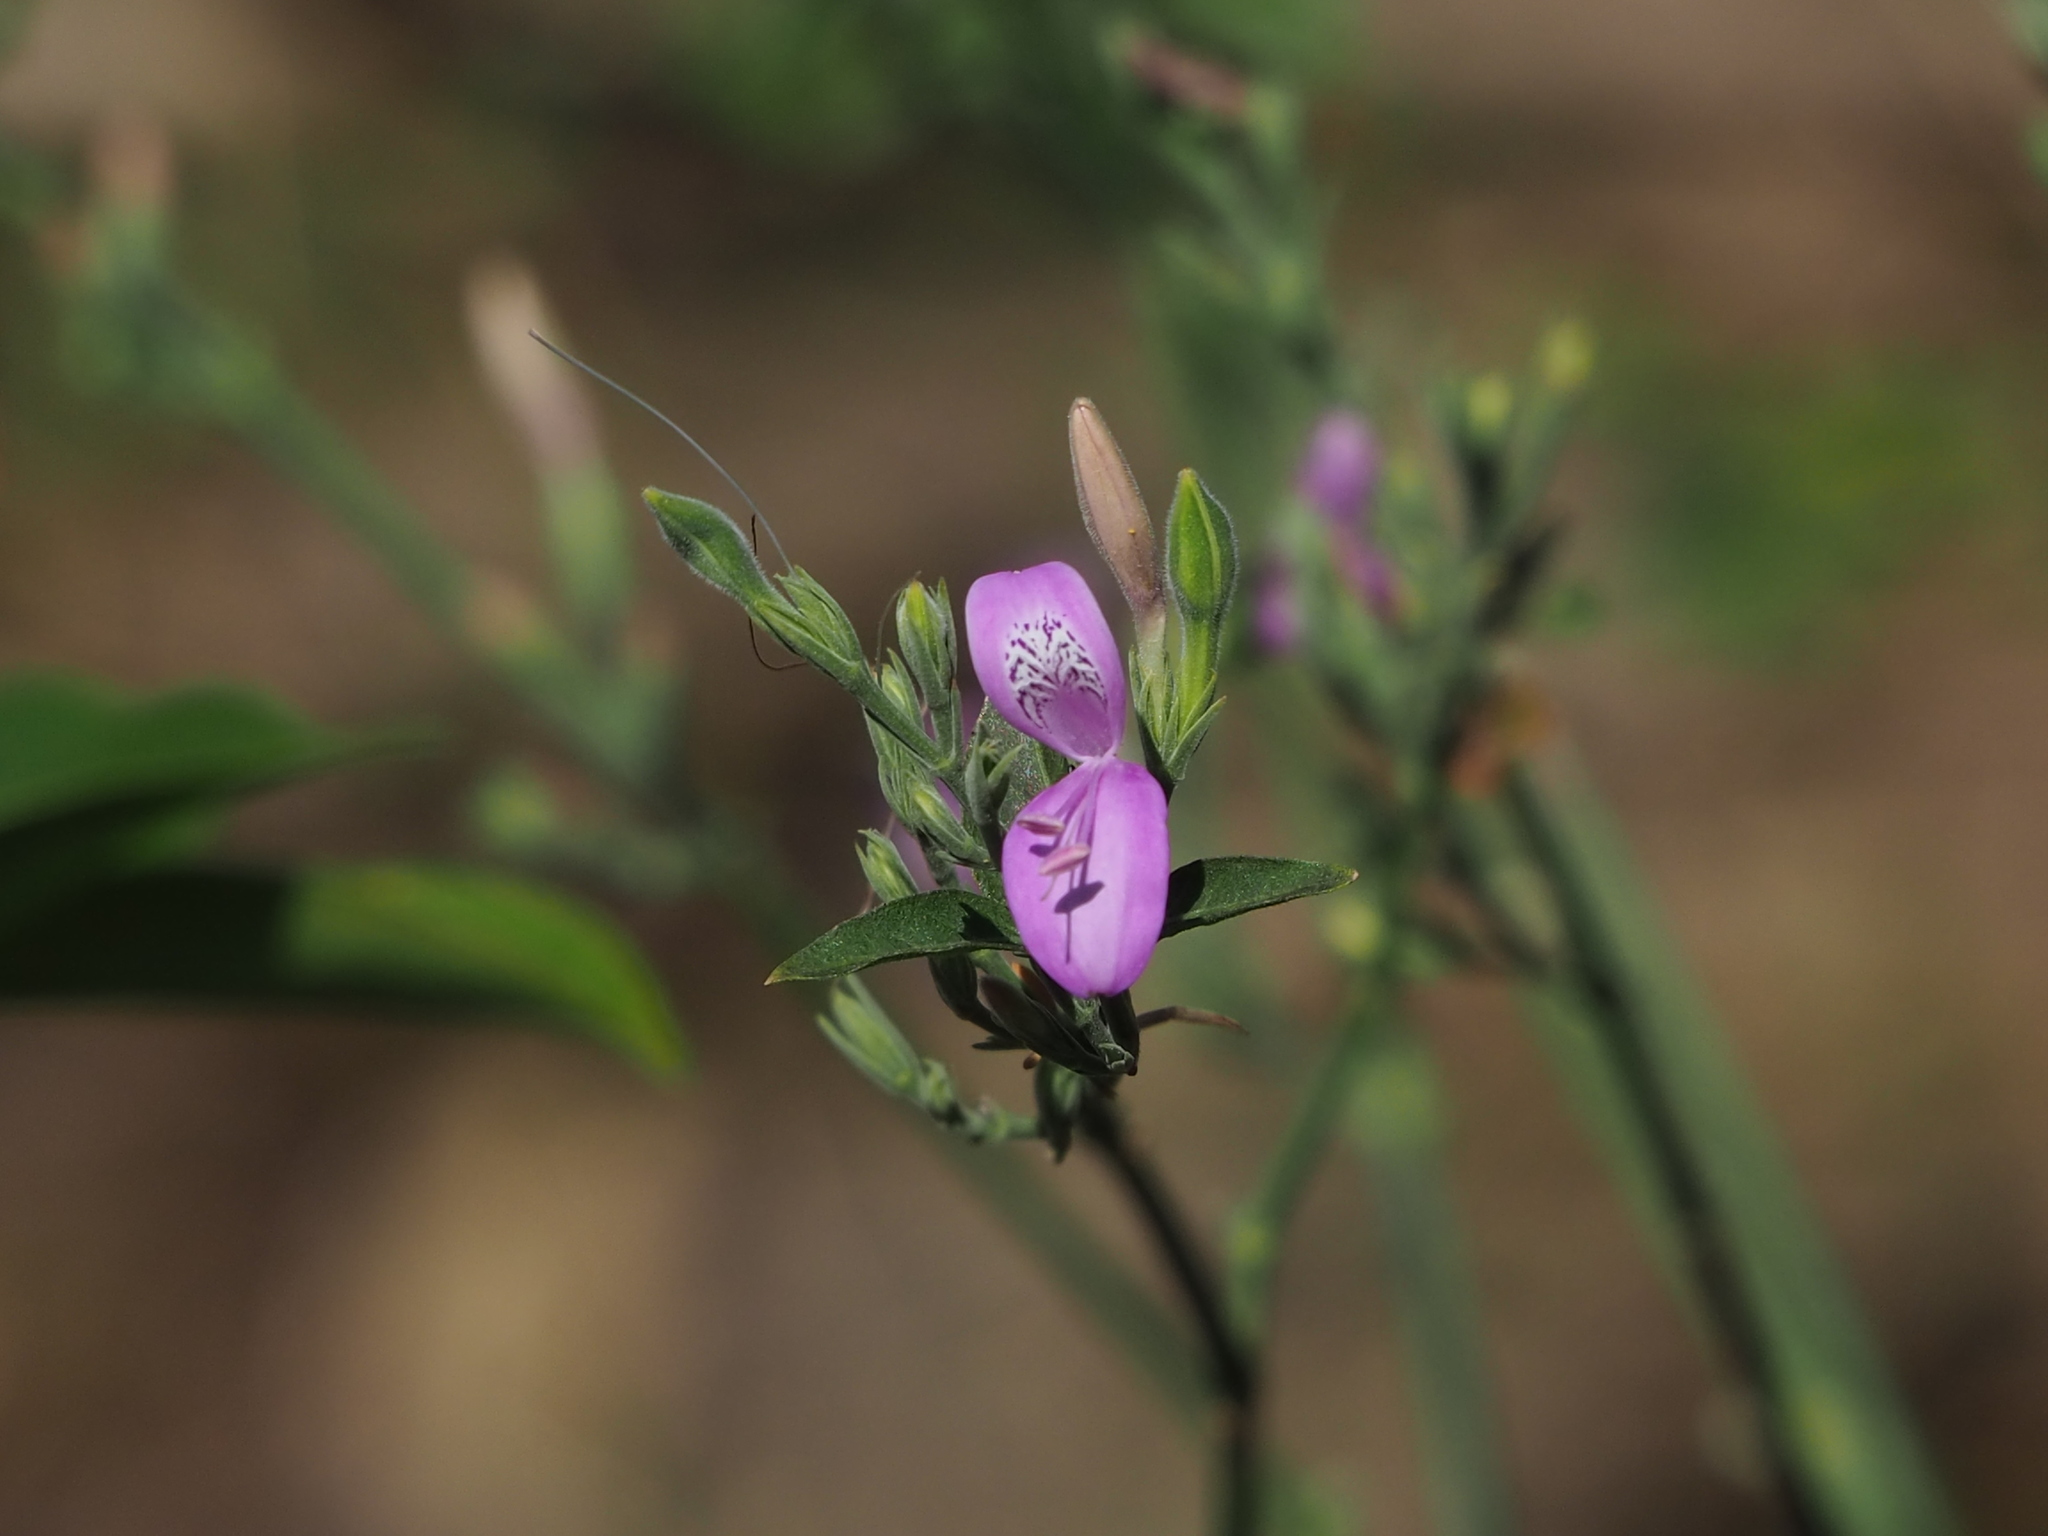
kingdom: Plantae
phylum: Tracheophyta
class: Magnoliopsida
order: Lamiales
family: Acanthaceae
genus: Hypoestes
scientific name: Hypoestes cumingiana
